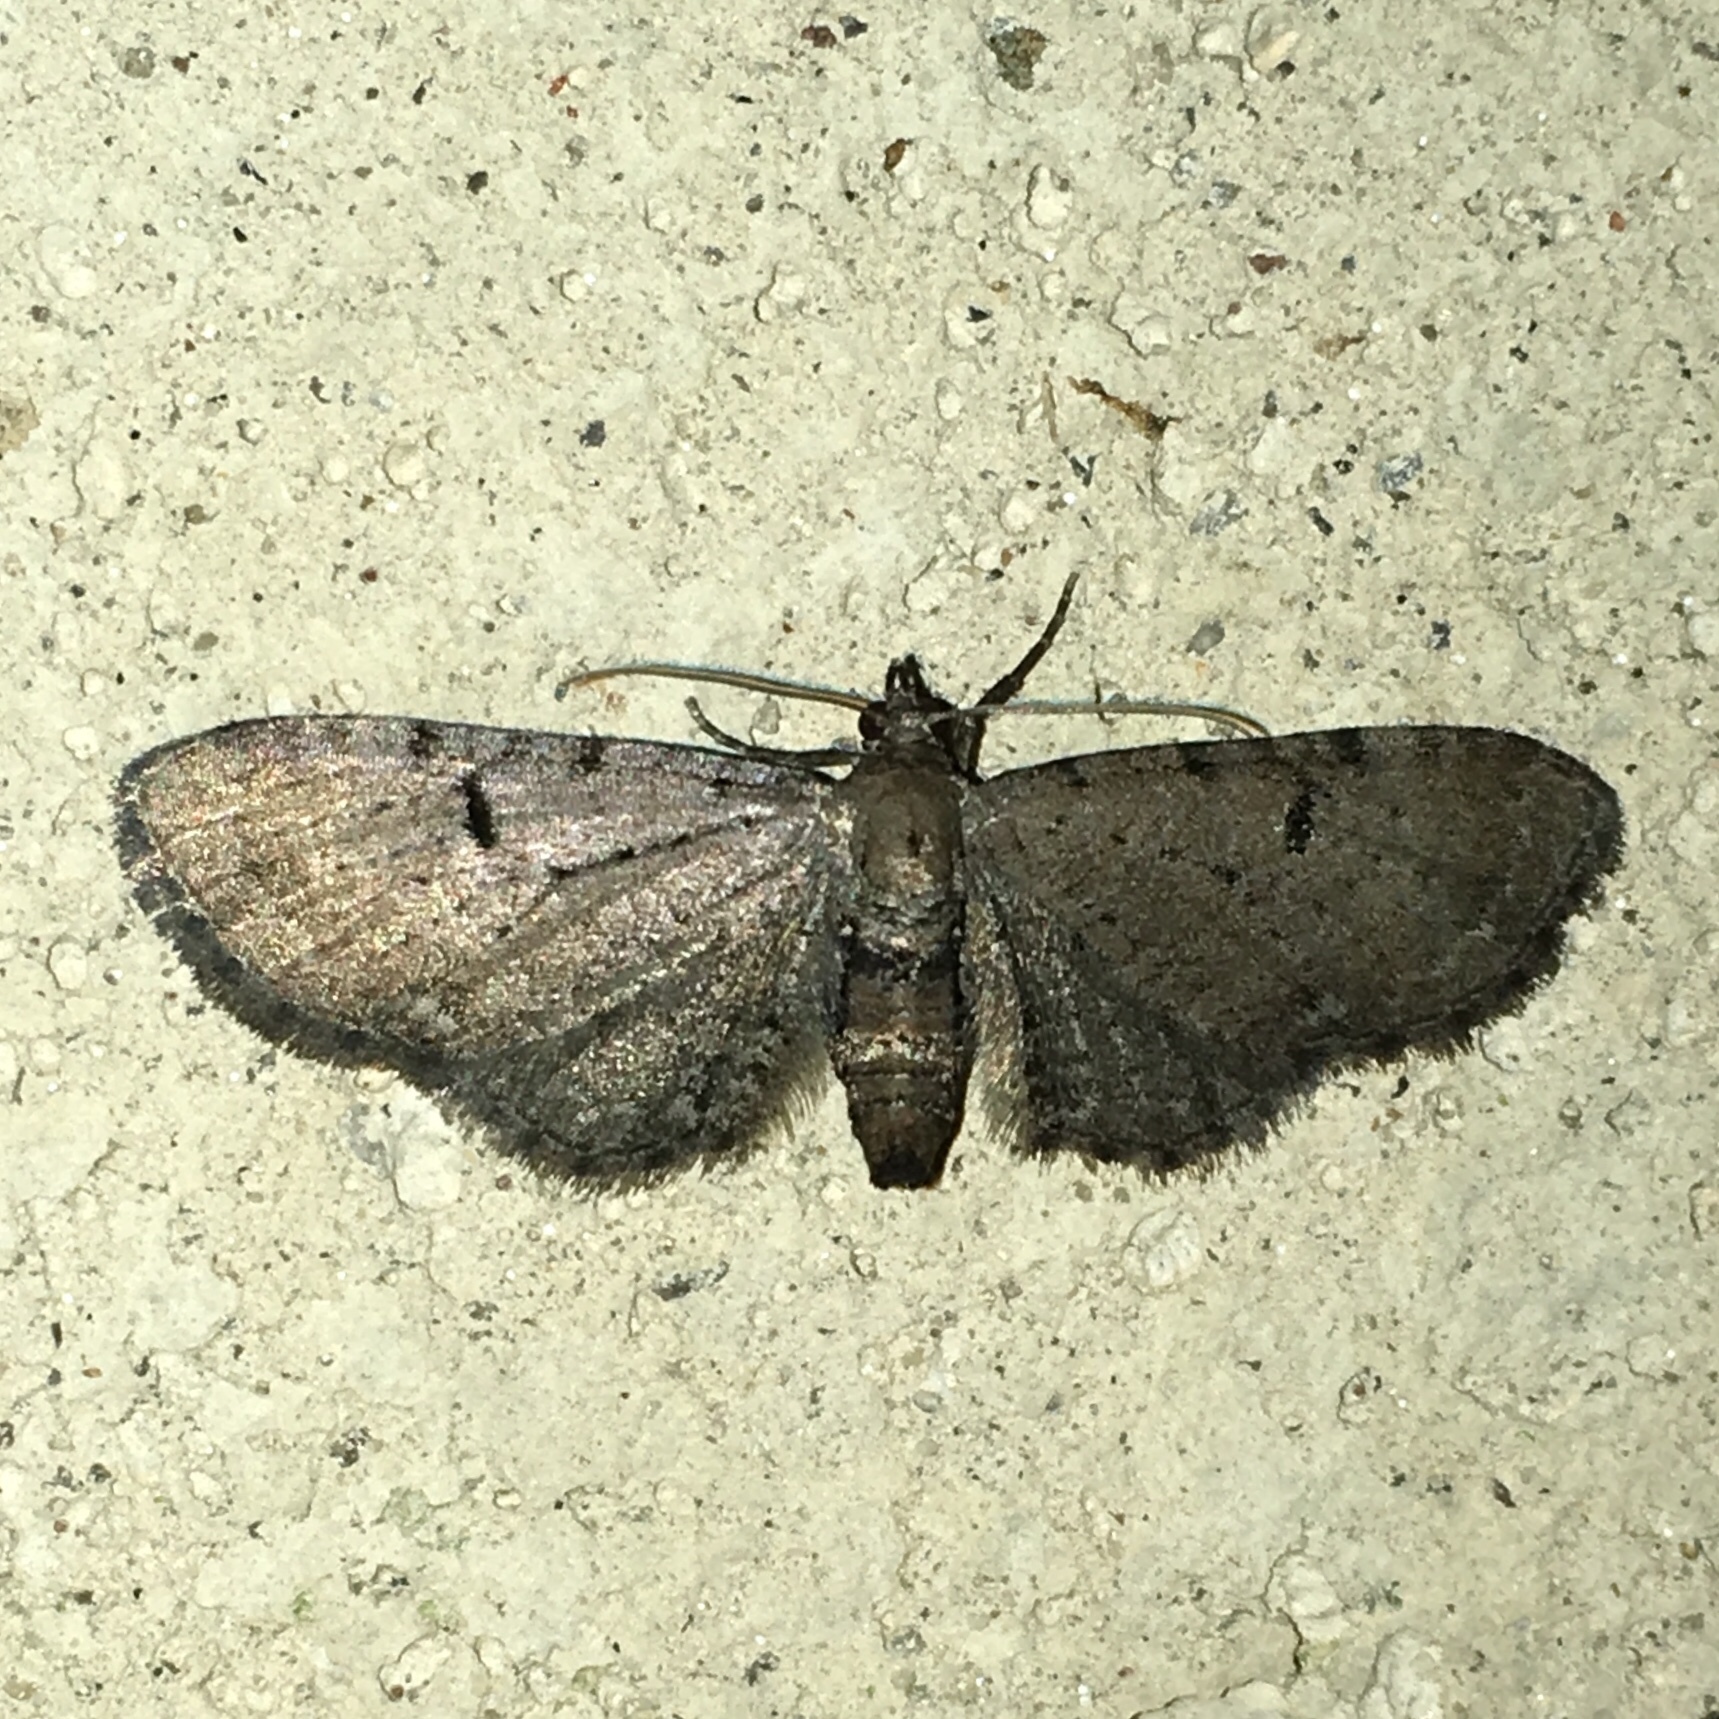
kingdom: Animalia
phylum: Arthropoda
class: Insecta
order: Lepidoptera
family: Geometridae
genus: Eupithecia
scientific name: Eupithecia miserulata
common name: Common eupithecia
